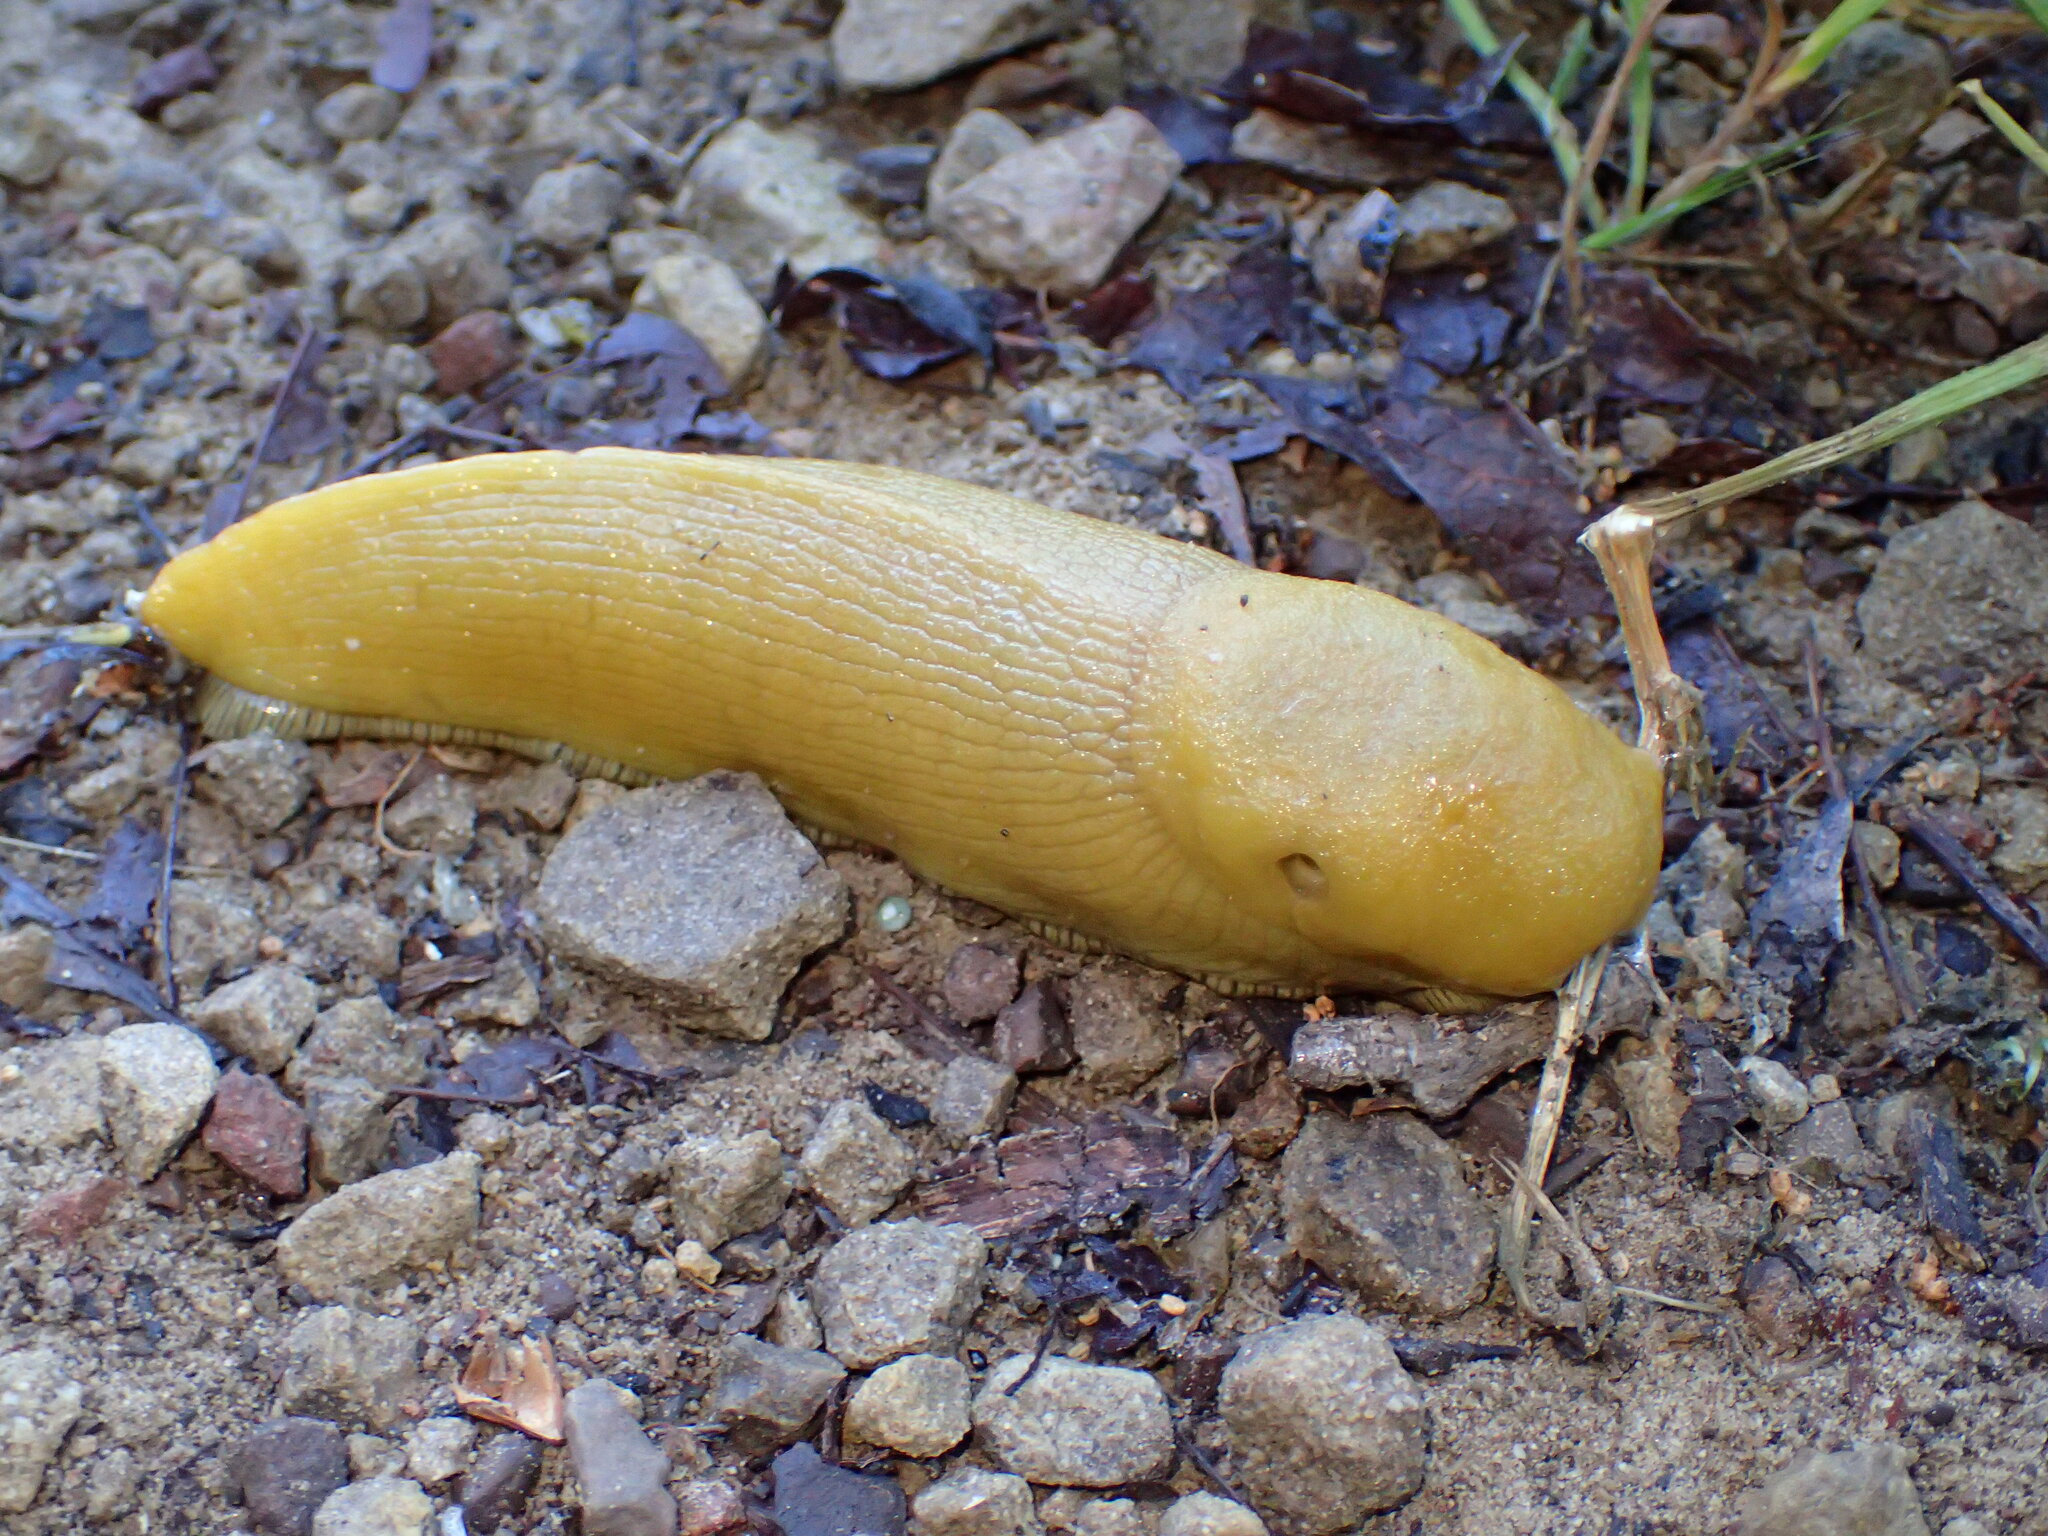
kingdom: Animalia
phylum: Mollusca
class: Gastropoda
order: Stylommatophora
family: Ariolimacidae
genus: Ariolimax
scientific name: Ariolimax stramineus
